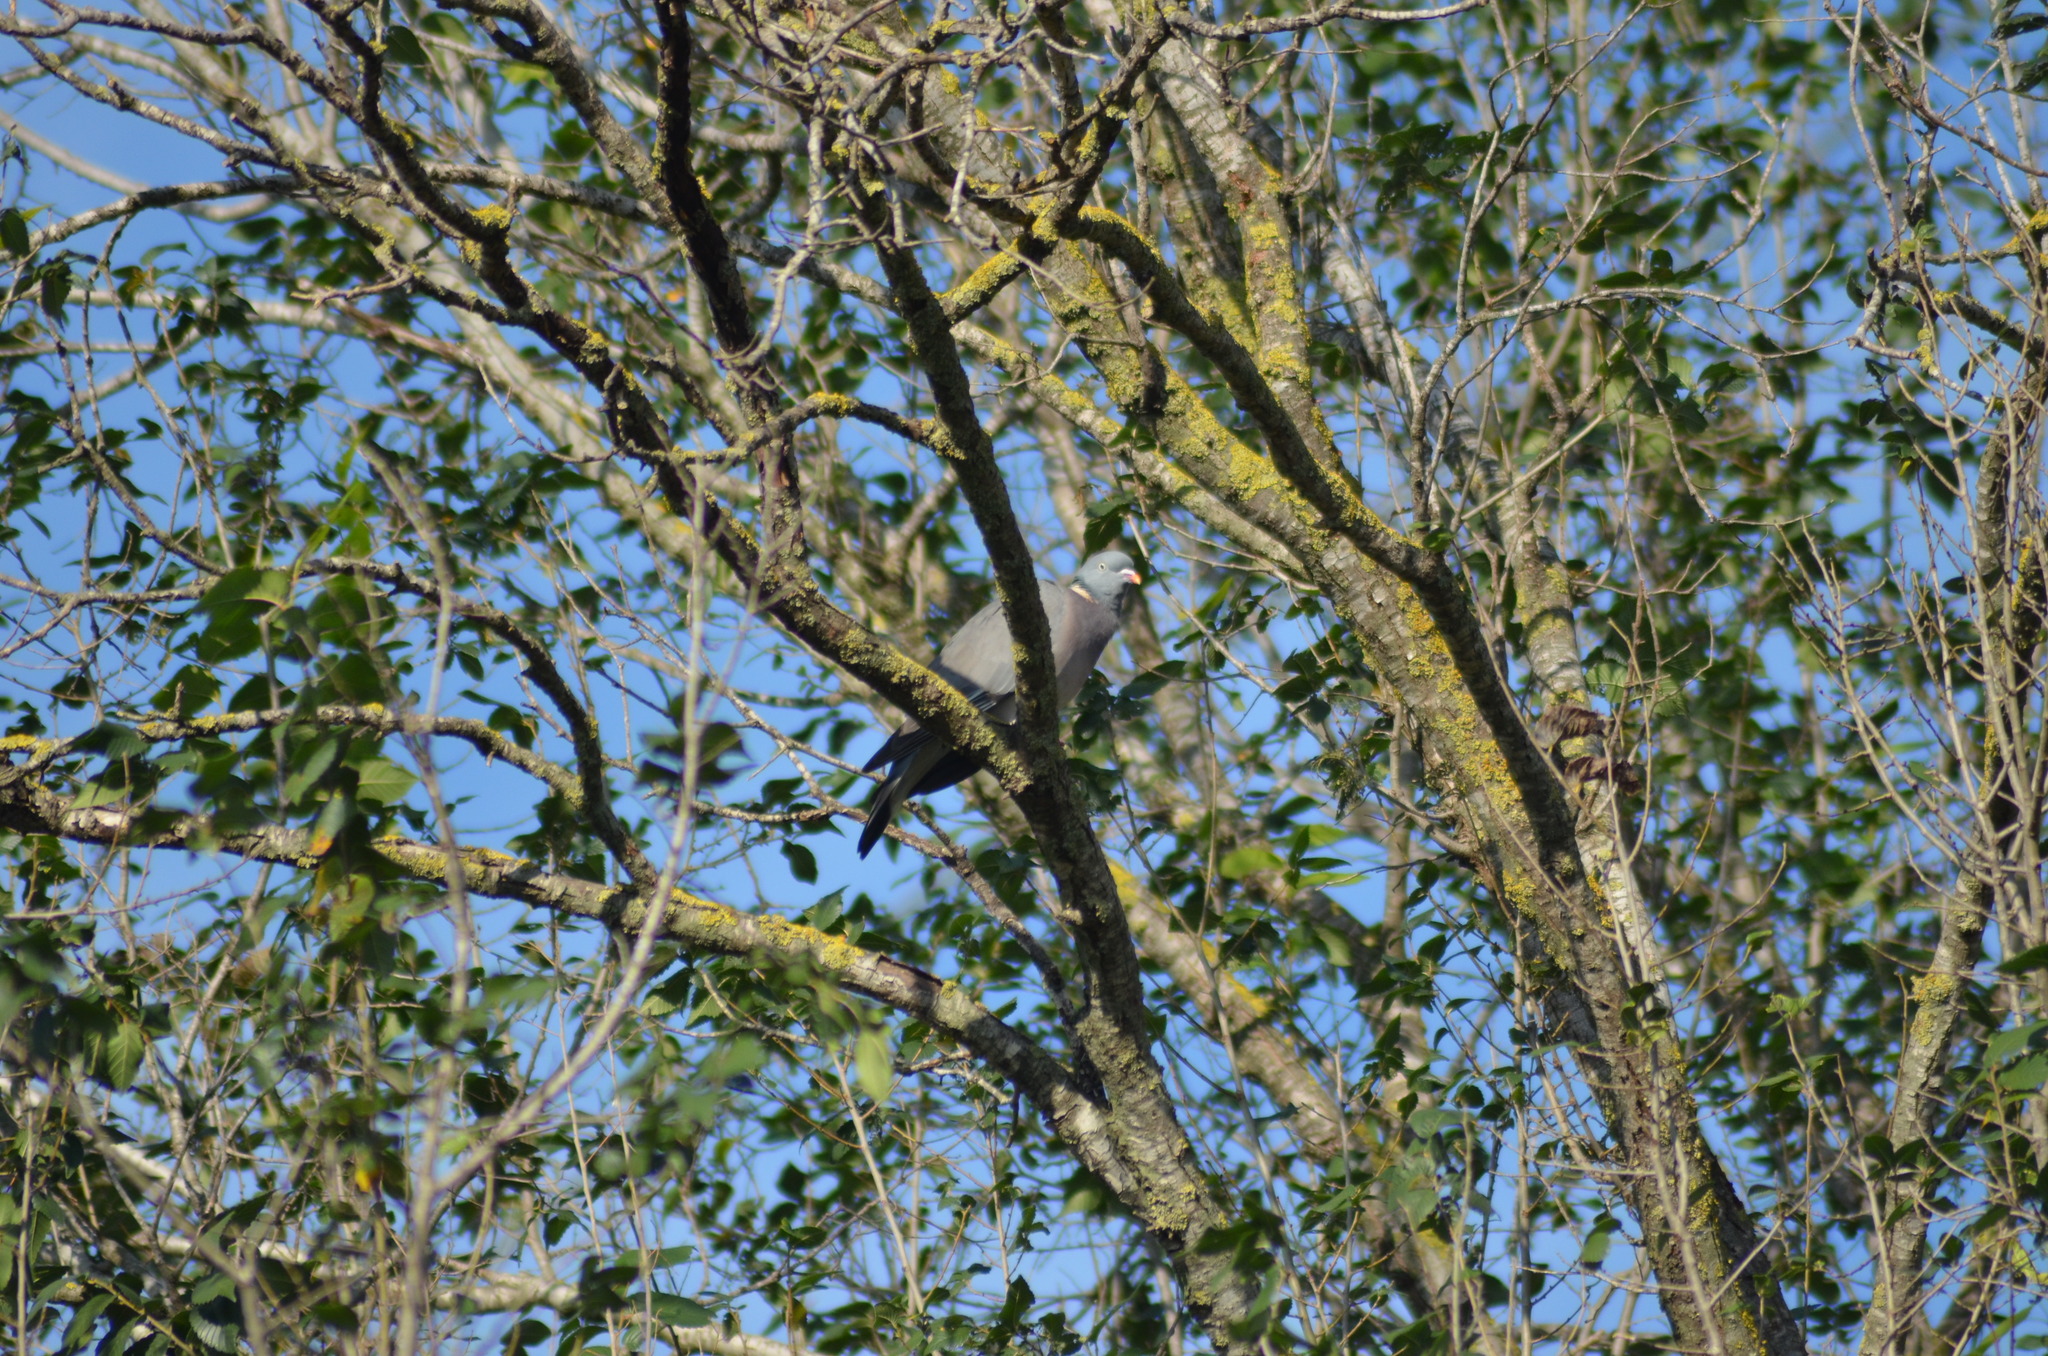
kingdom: Animalia
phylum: Chordata
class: Aves
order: Columbiformes
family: Columbidae
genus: Columba
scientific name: Columba palumbus
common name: Common wood pigeon
